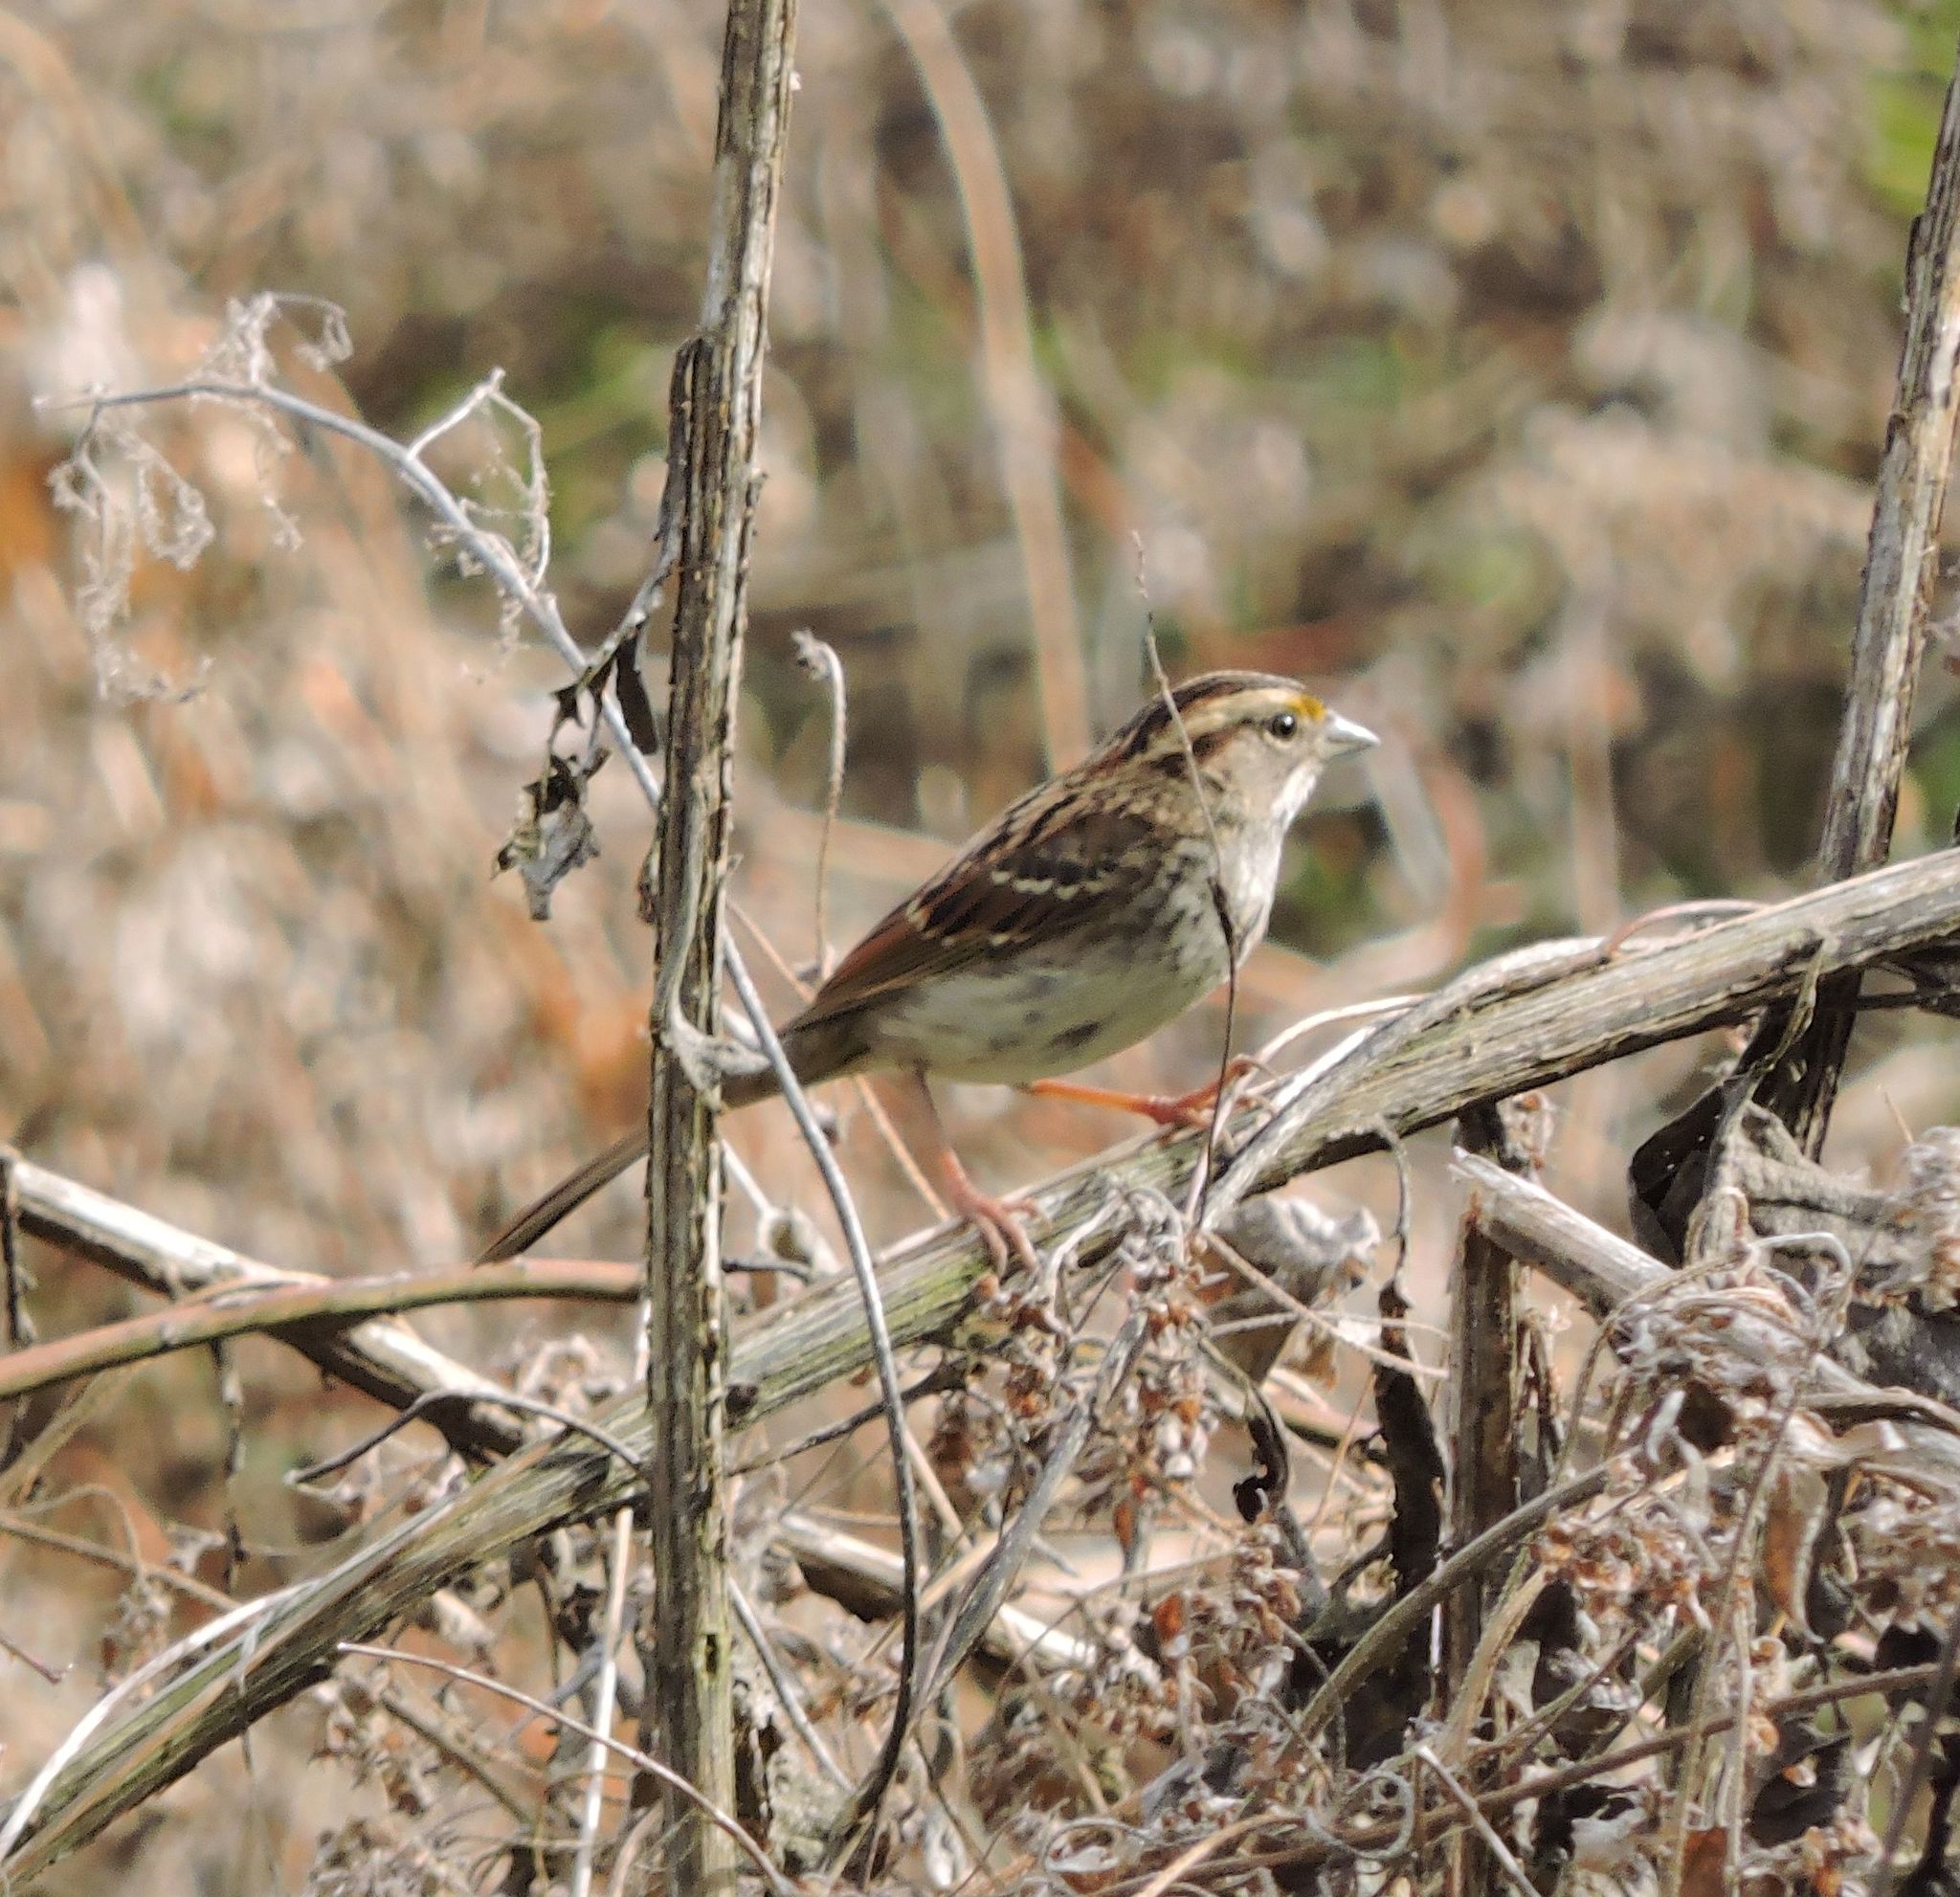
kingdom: Animalia
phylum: Chordata
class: Aves
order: Passeriformes
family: Passerellidae
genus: Zonotrichia
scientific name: Zonotrichia albicollis
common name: White-throated sparrow
